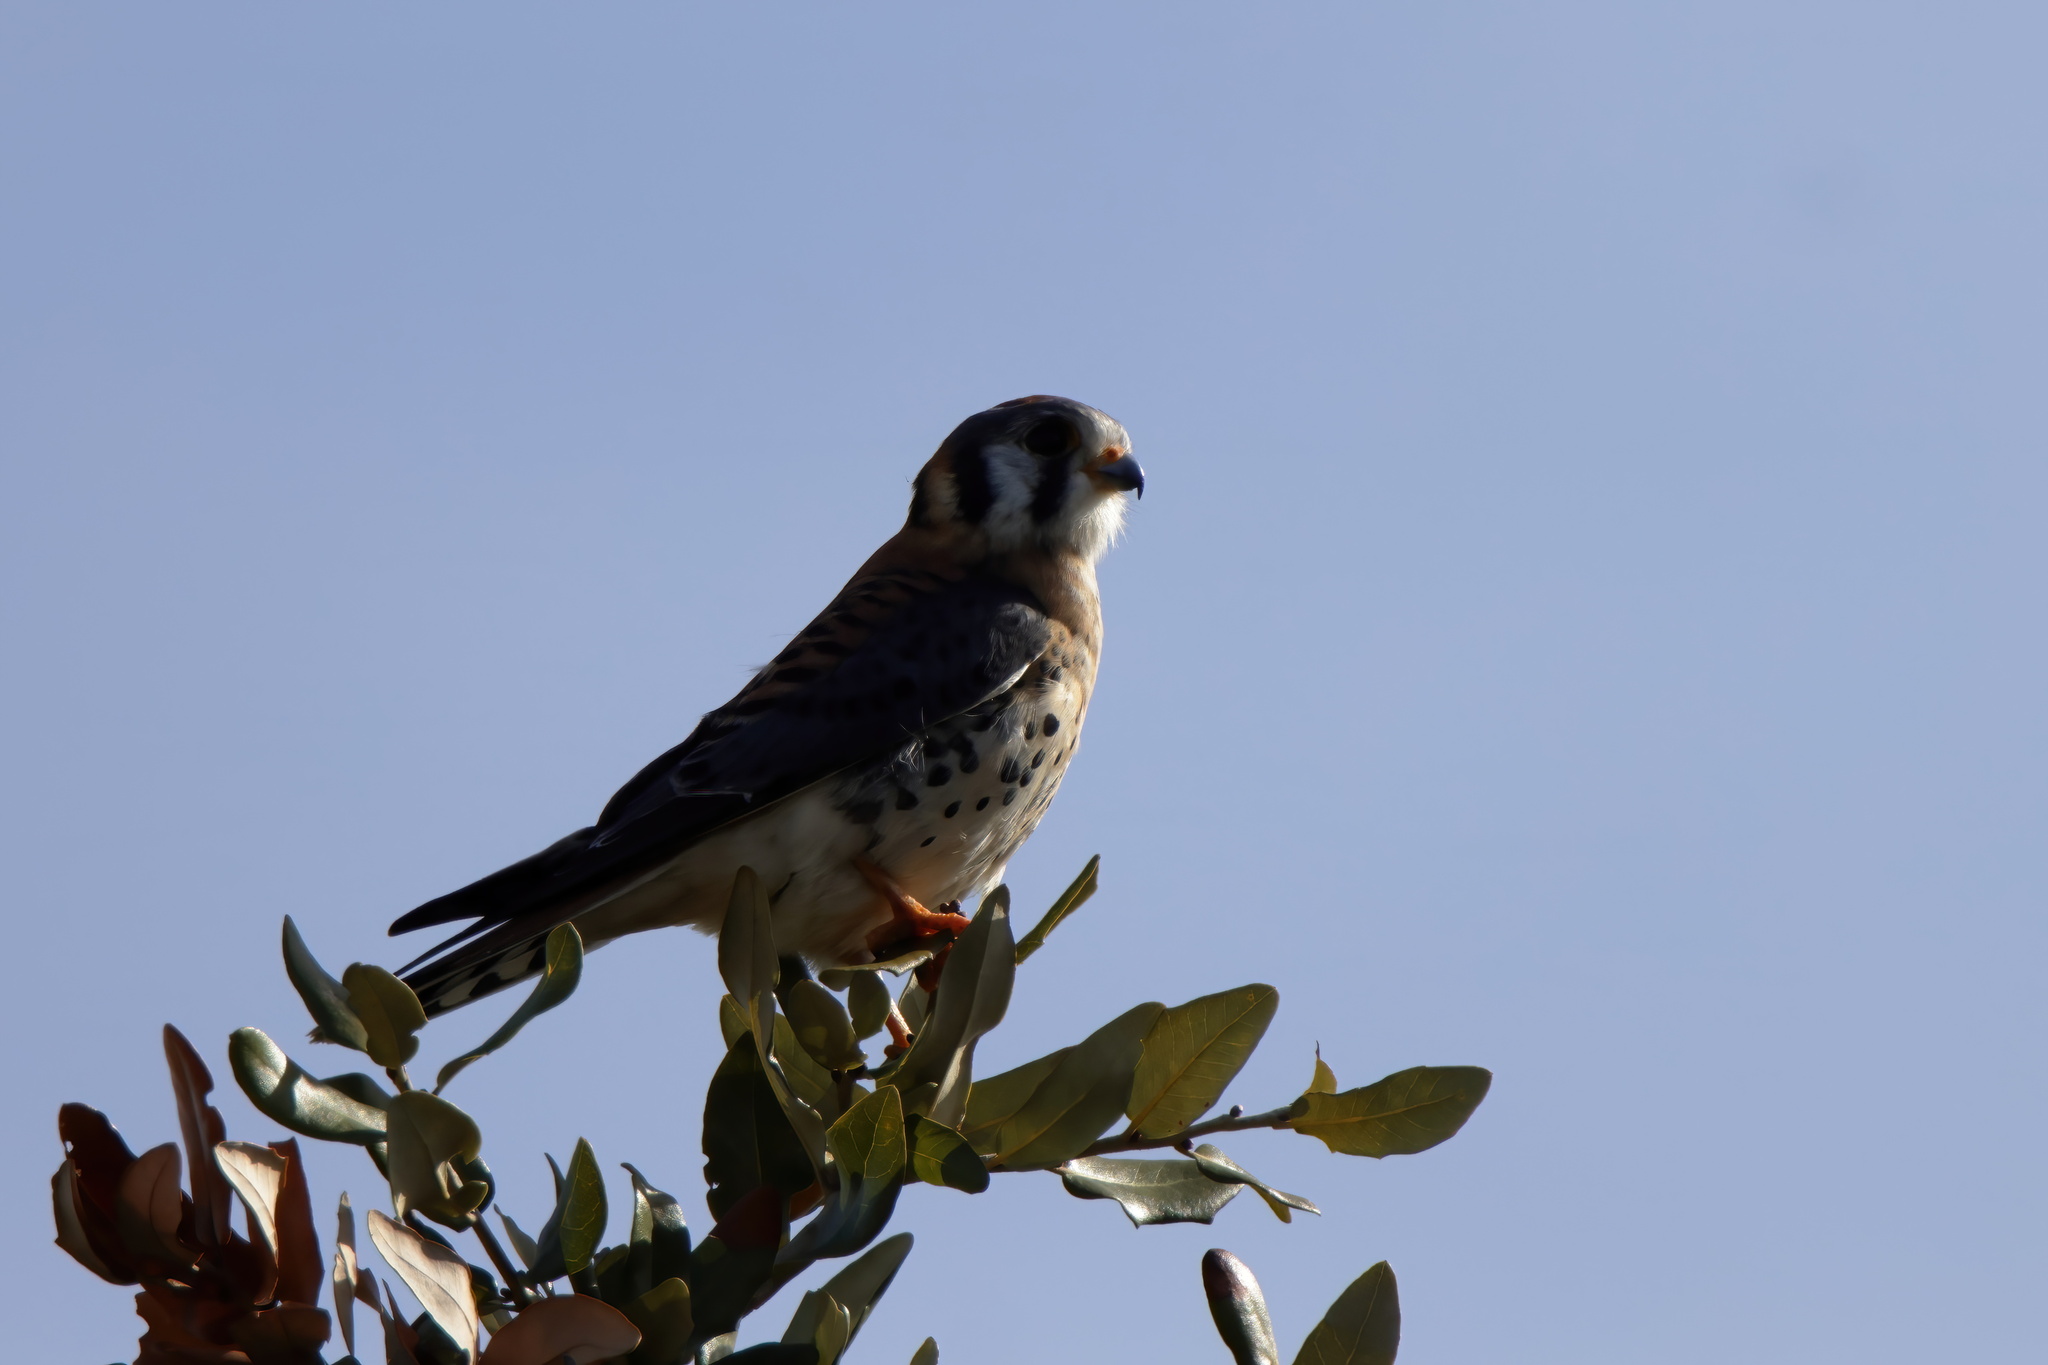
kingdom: Animalia
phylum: Chordata
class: Aves
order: Falconiformes
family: Falconidae
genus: Falco
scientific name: Falco sparverius
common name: American kestrel
